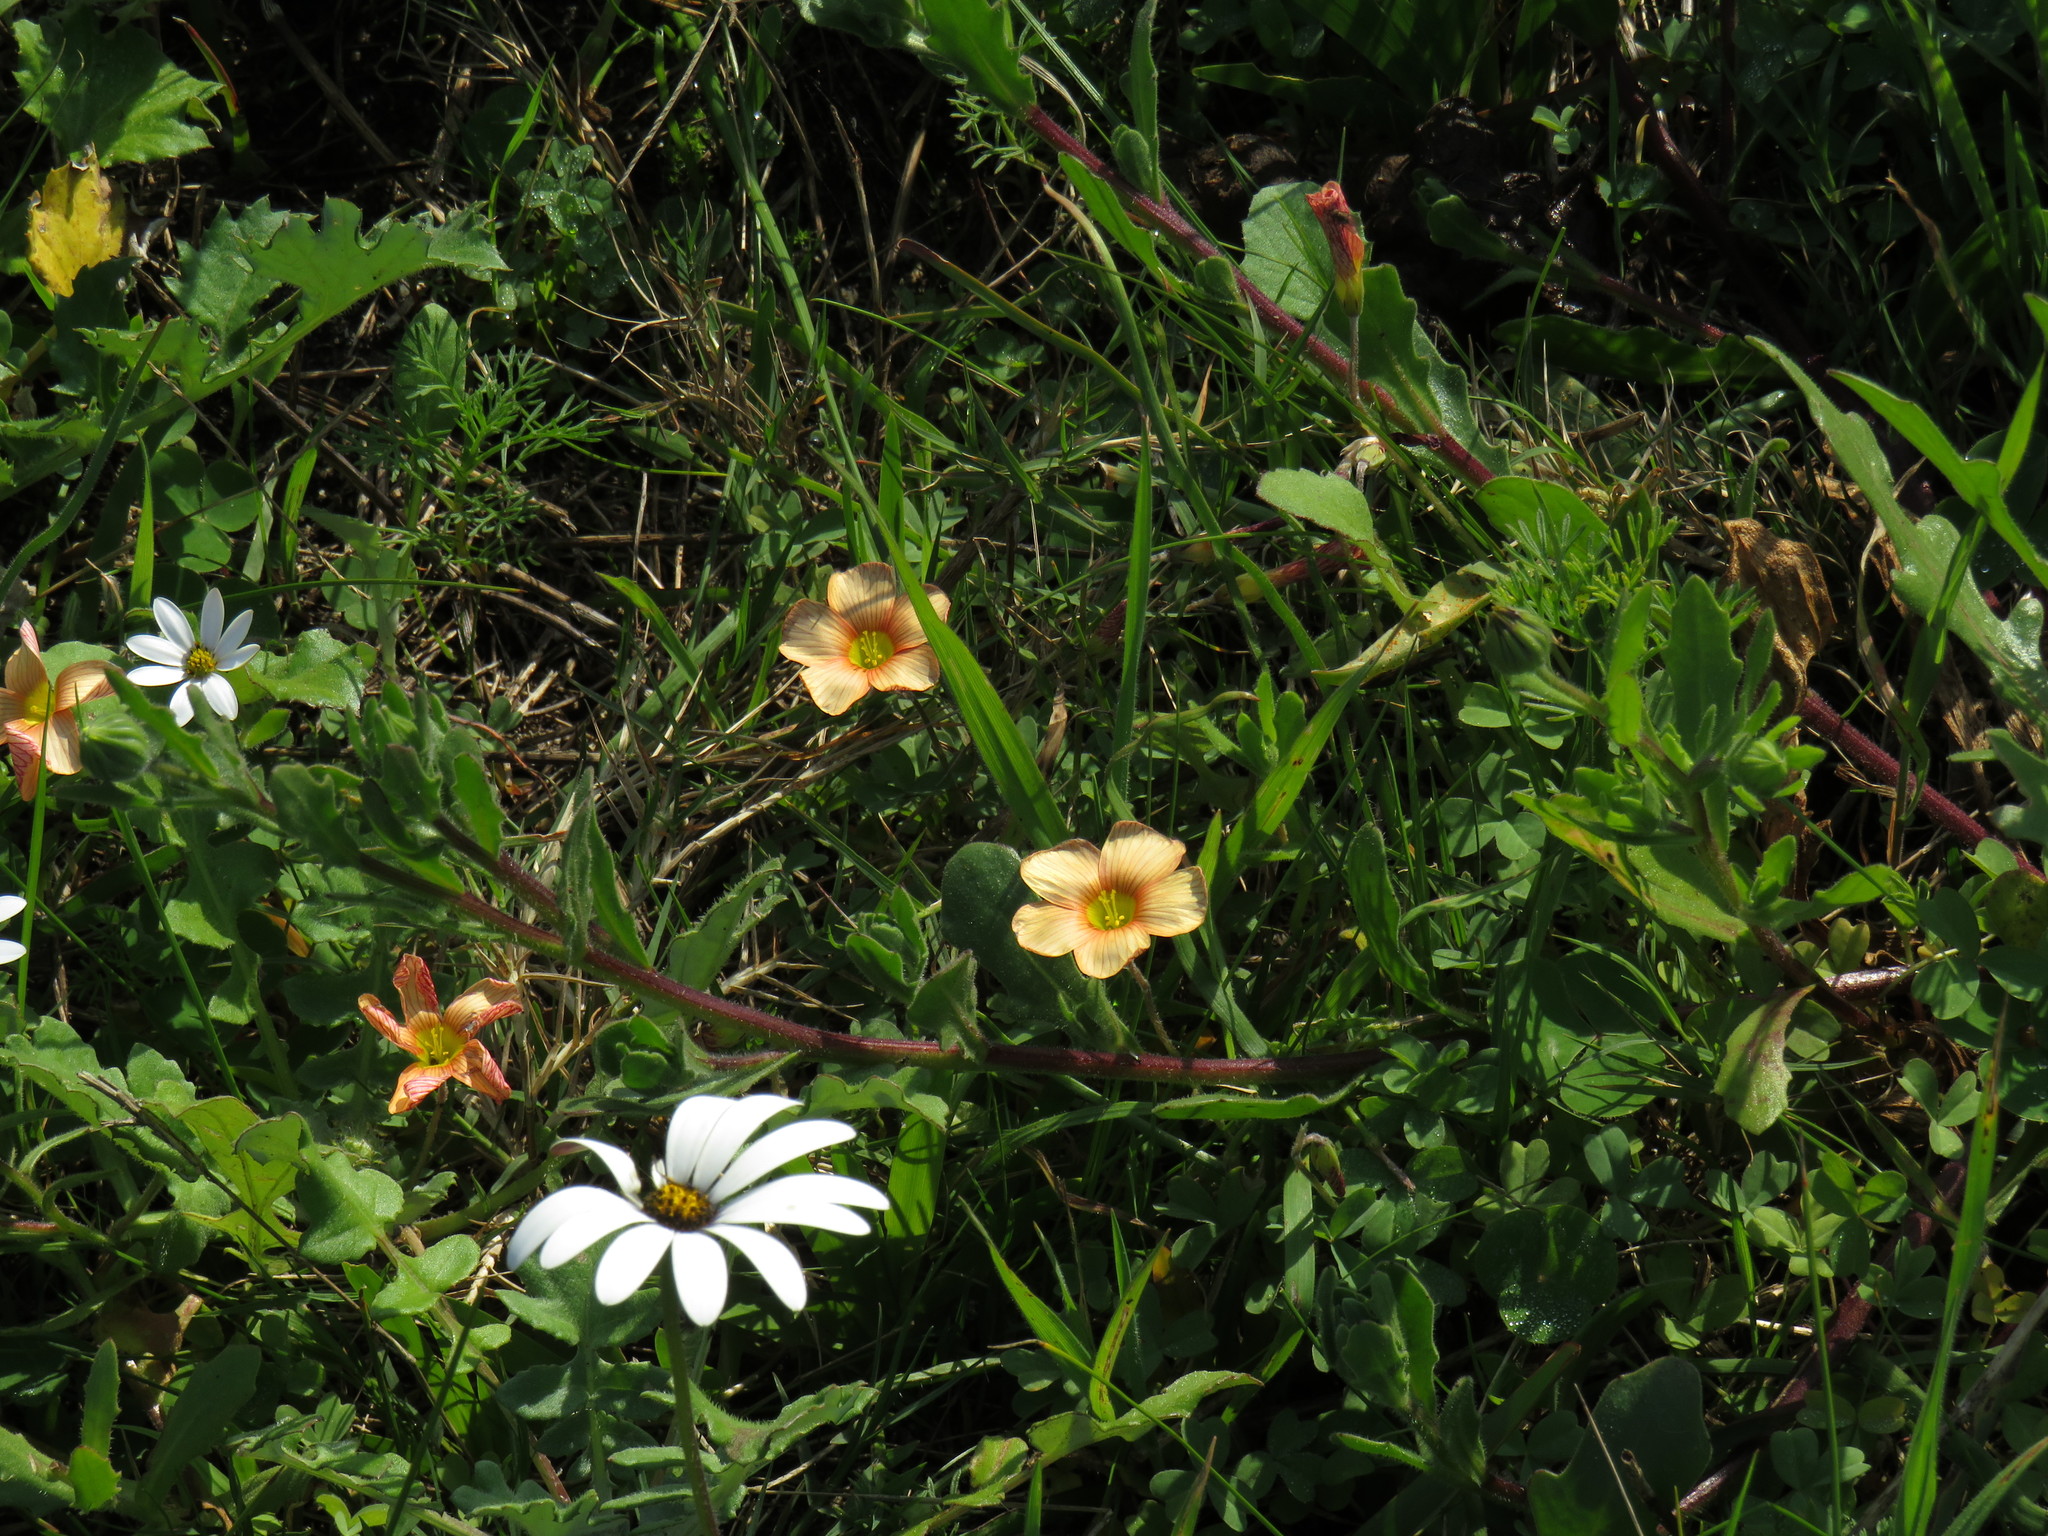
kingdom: Plantae
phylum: Tracheophyta
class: Magnoliopsida
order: Oxalidales
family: Oxalidaceae
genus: Oxalis
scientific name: Oxalis obtusa
